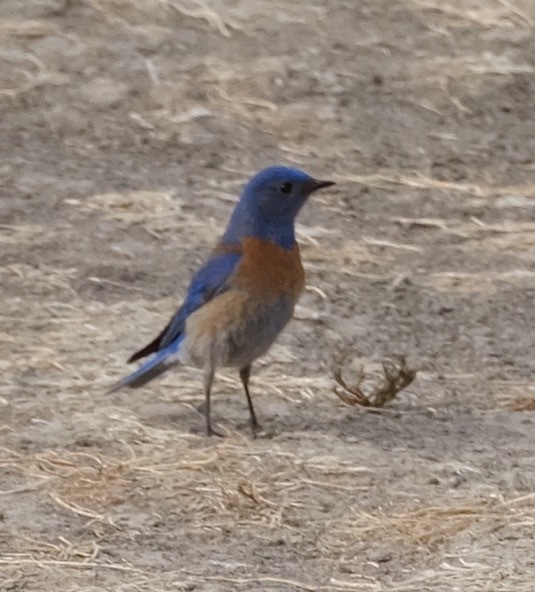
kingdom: Animalia
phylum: Chordata
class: Aves
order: Passeriformes
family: Turdidae
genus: Sialia
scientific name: Sialia mexicana
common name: Western bluebird
